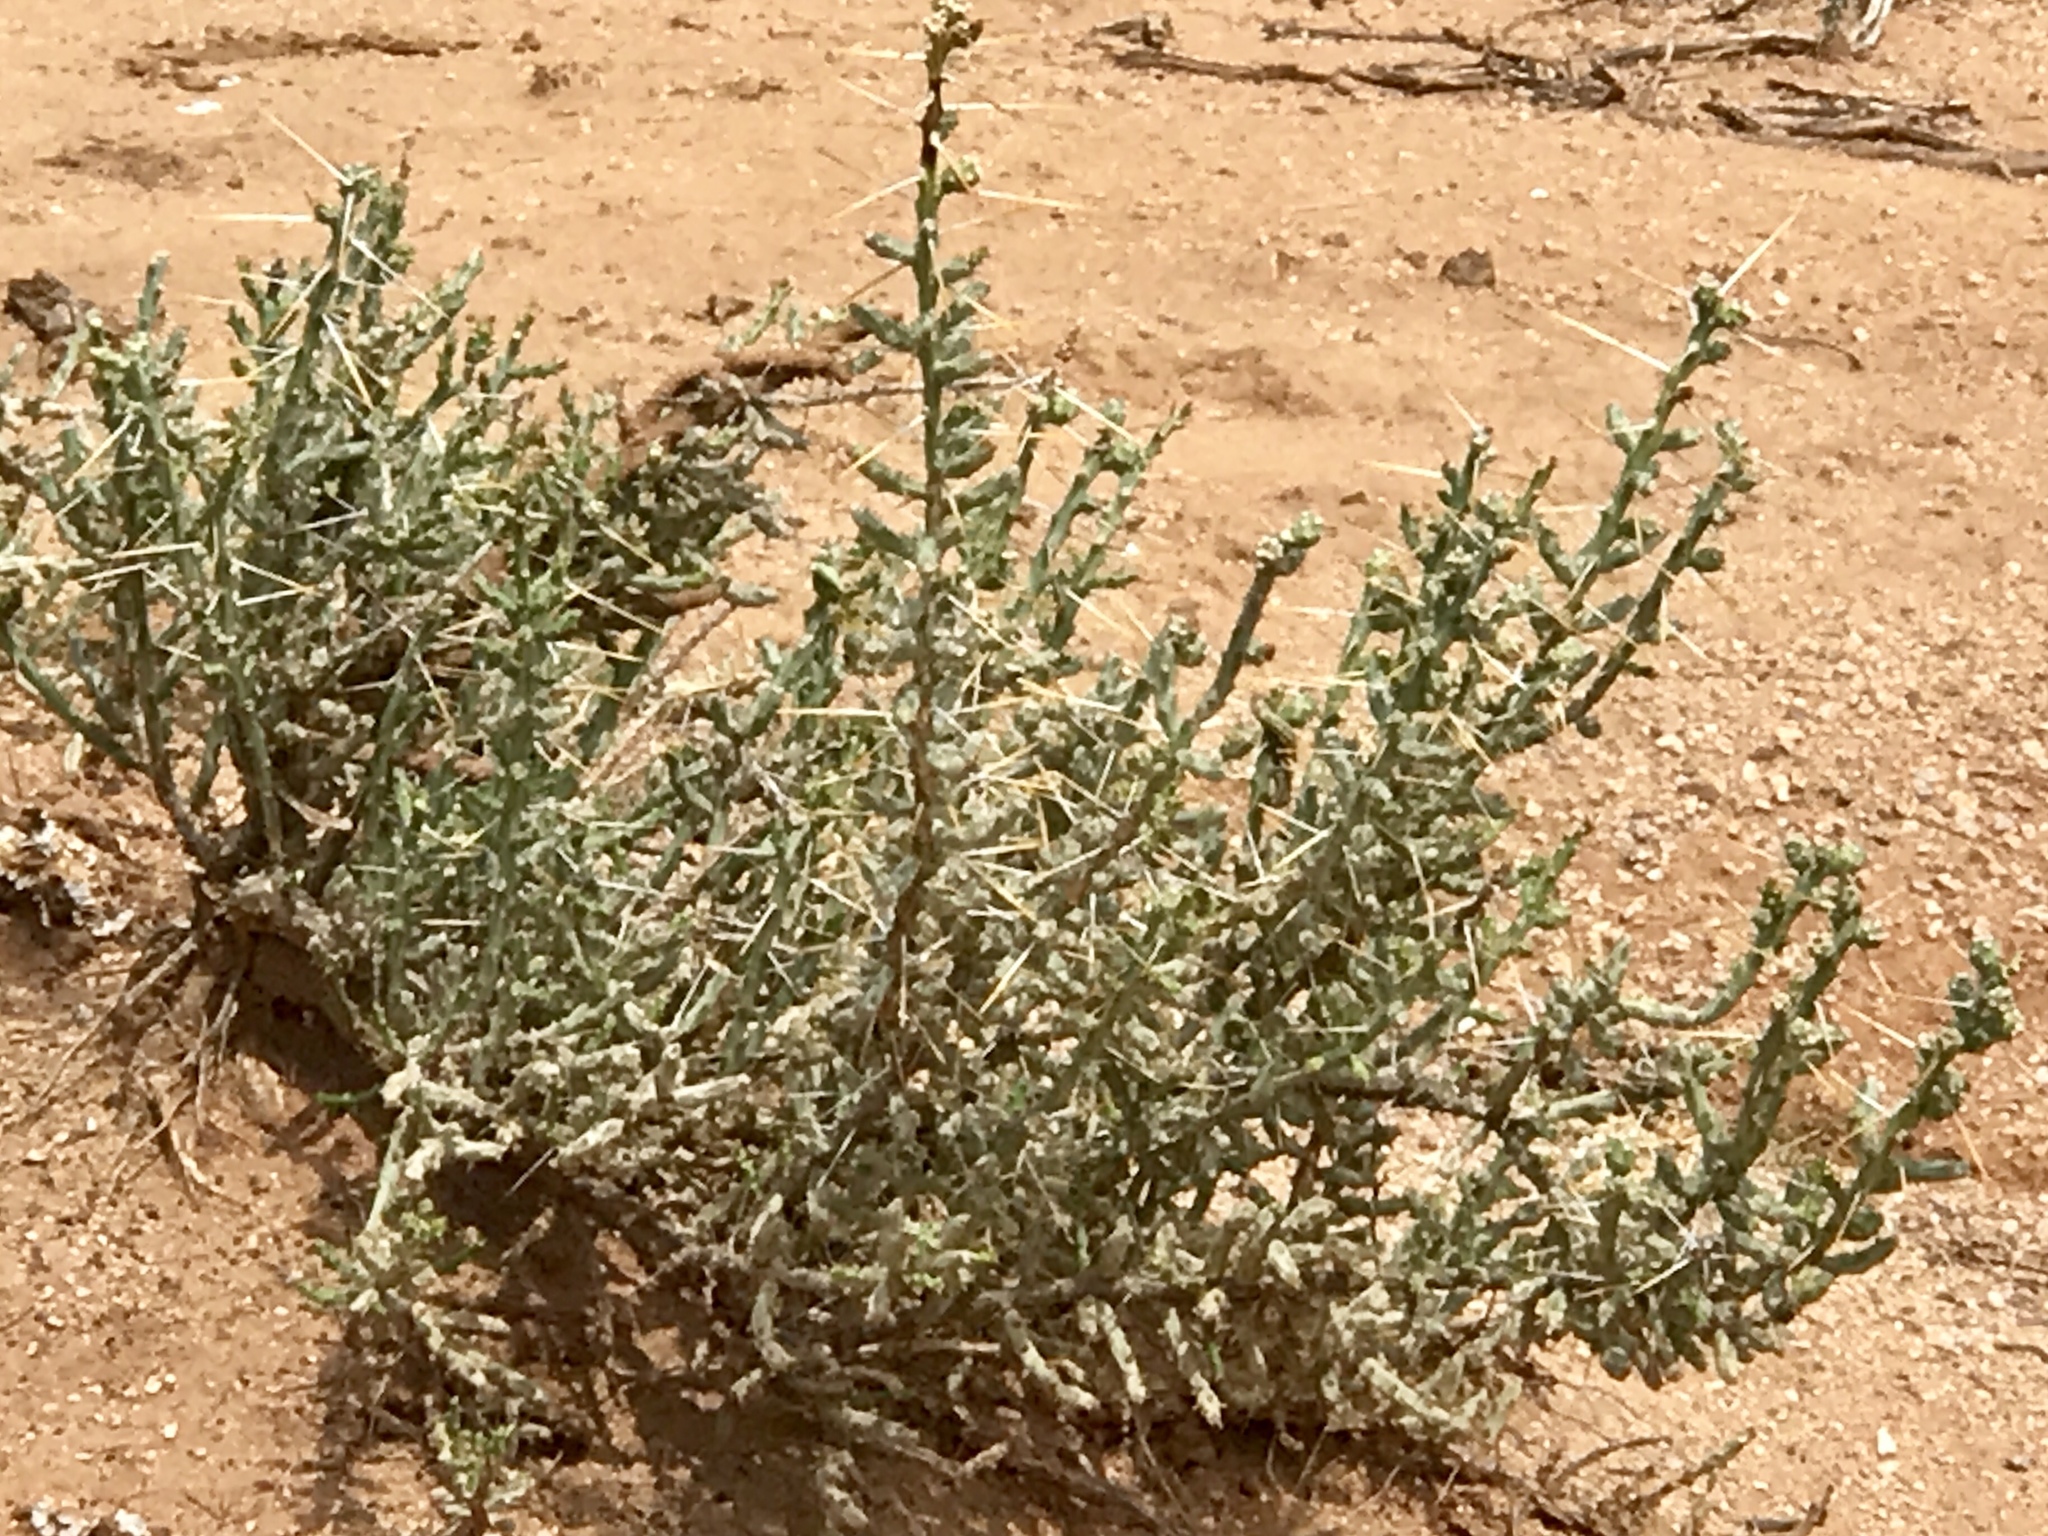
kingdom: Plantae
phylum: Tracheophyta
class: Magnoliopsida
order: Caryophyllales
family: Cactaceae
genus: Cylindropuntia
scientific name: Cylindropuntia leptocaulis
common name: Christmas cactus
